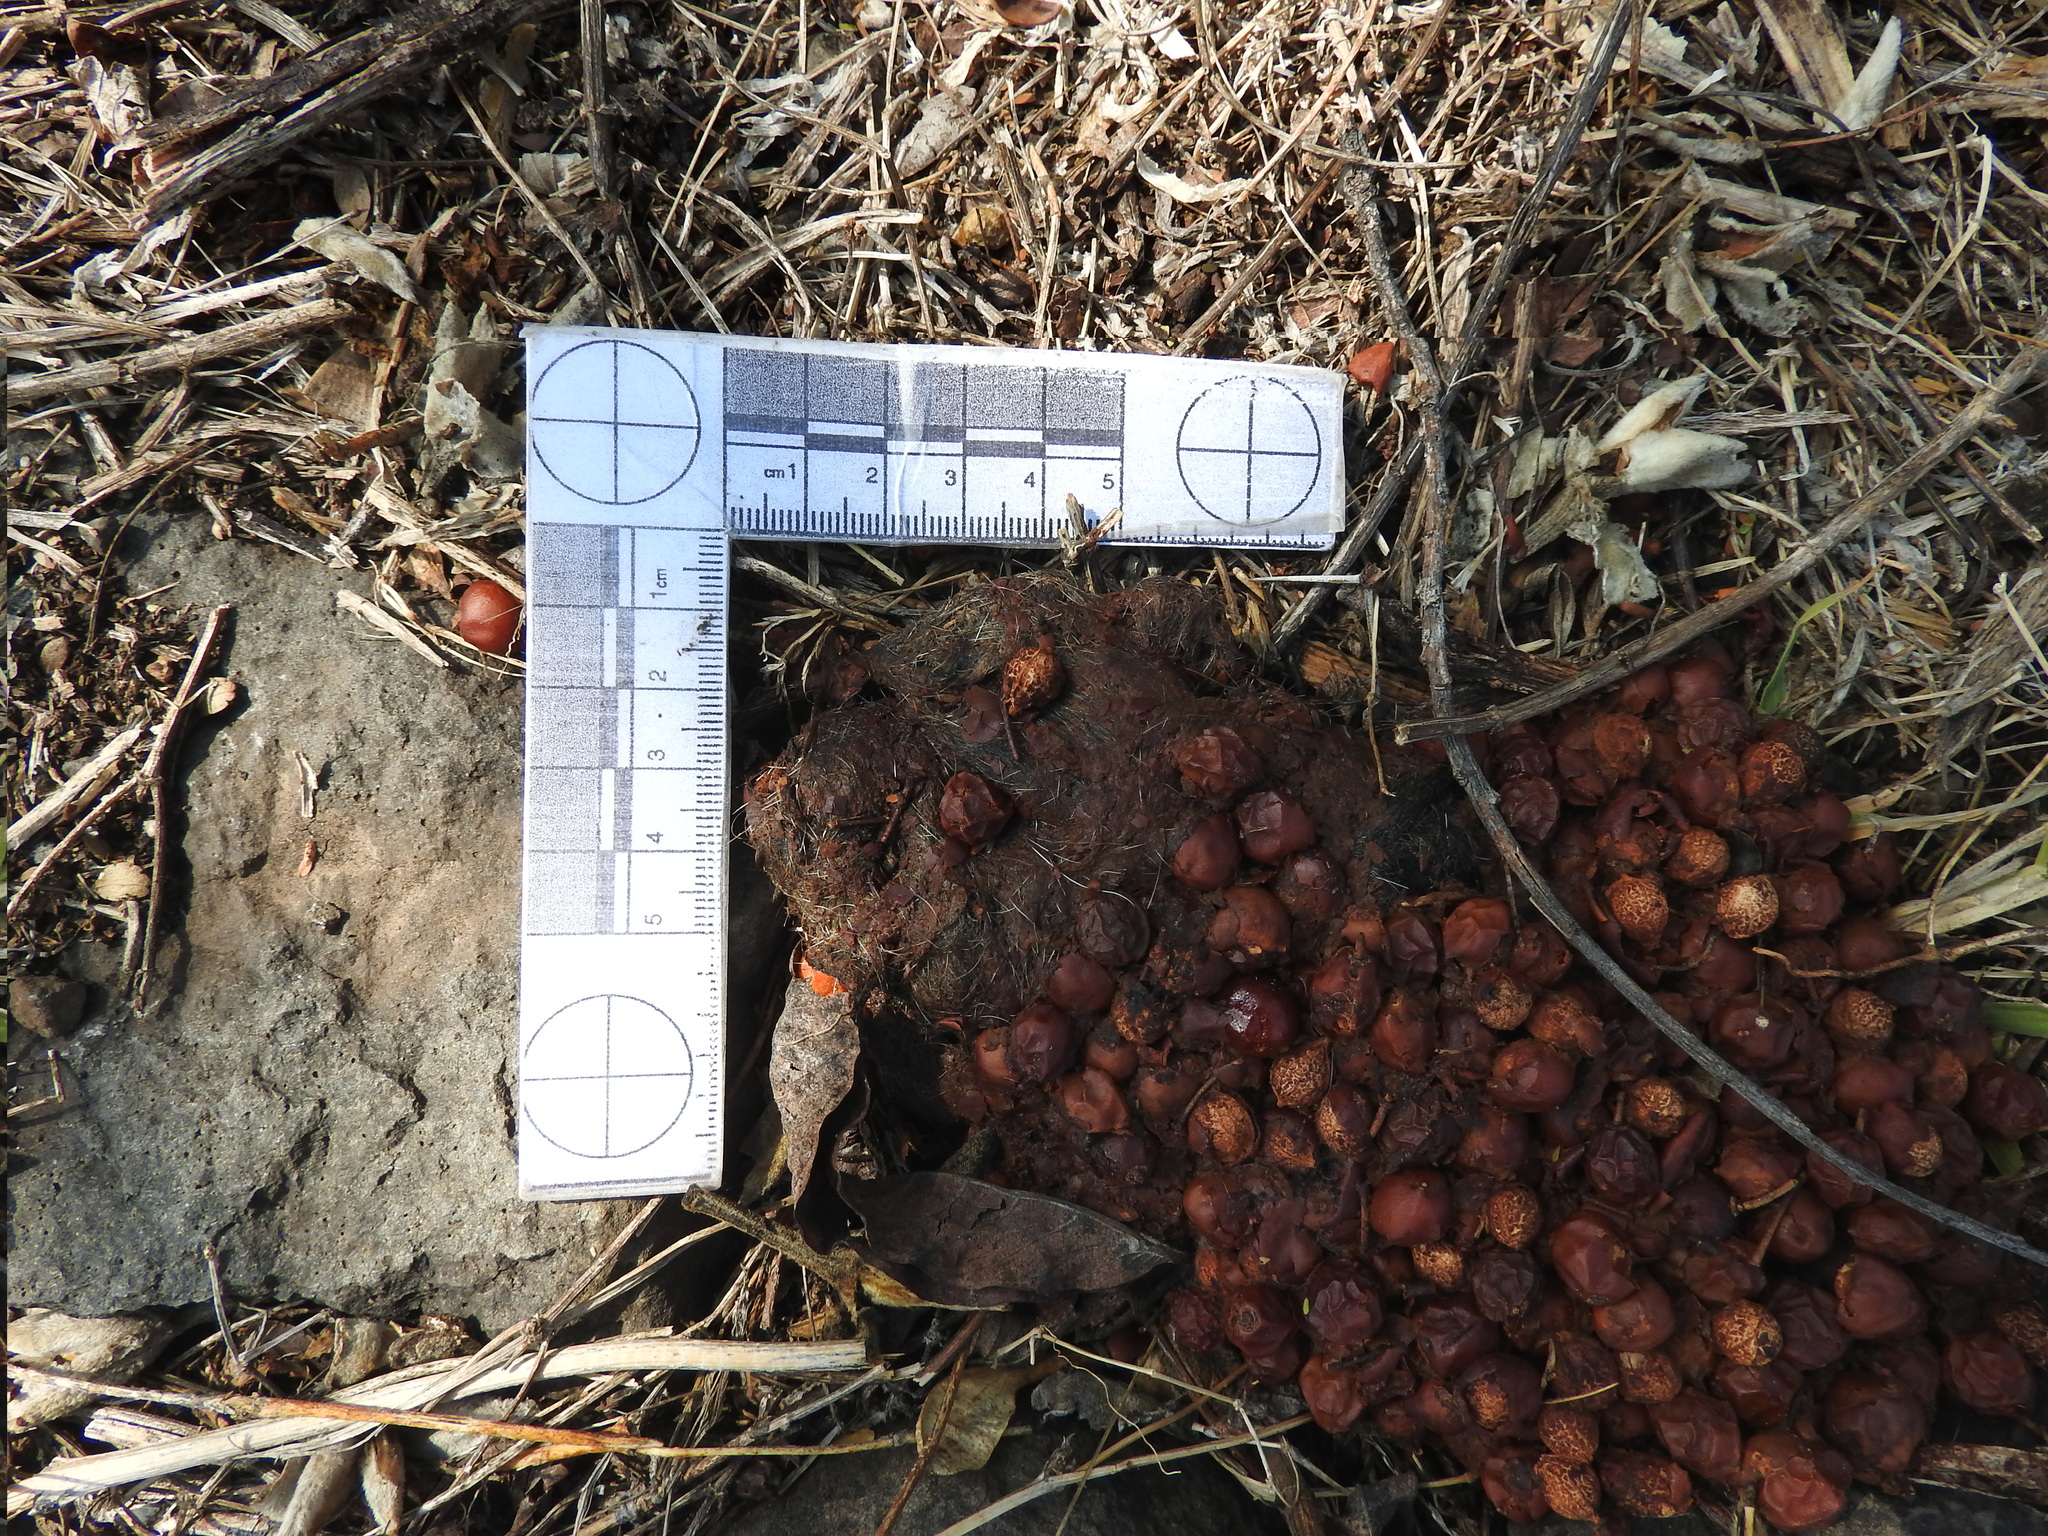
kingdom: Animalia
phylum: Chordata
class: Mammalia
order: Carnivora
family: Canidae
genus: Canis
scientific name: Canis latrans
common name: Coyote
